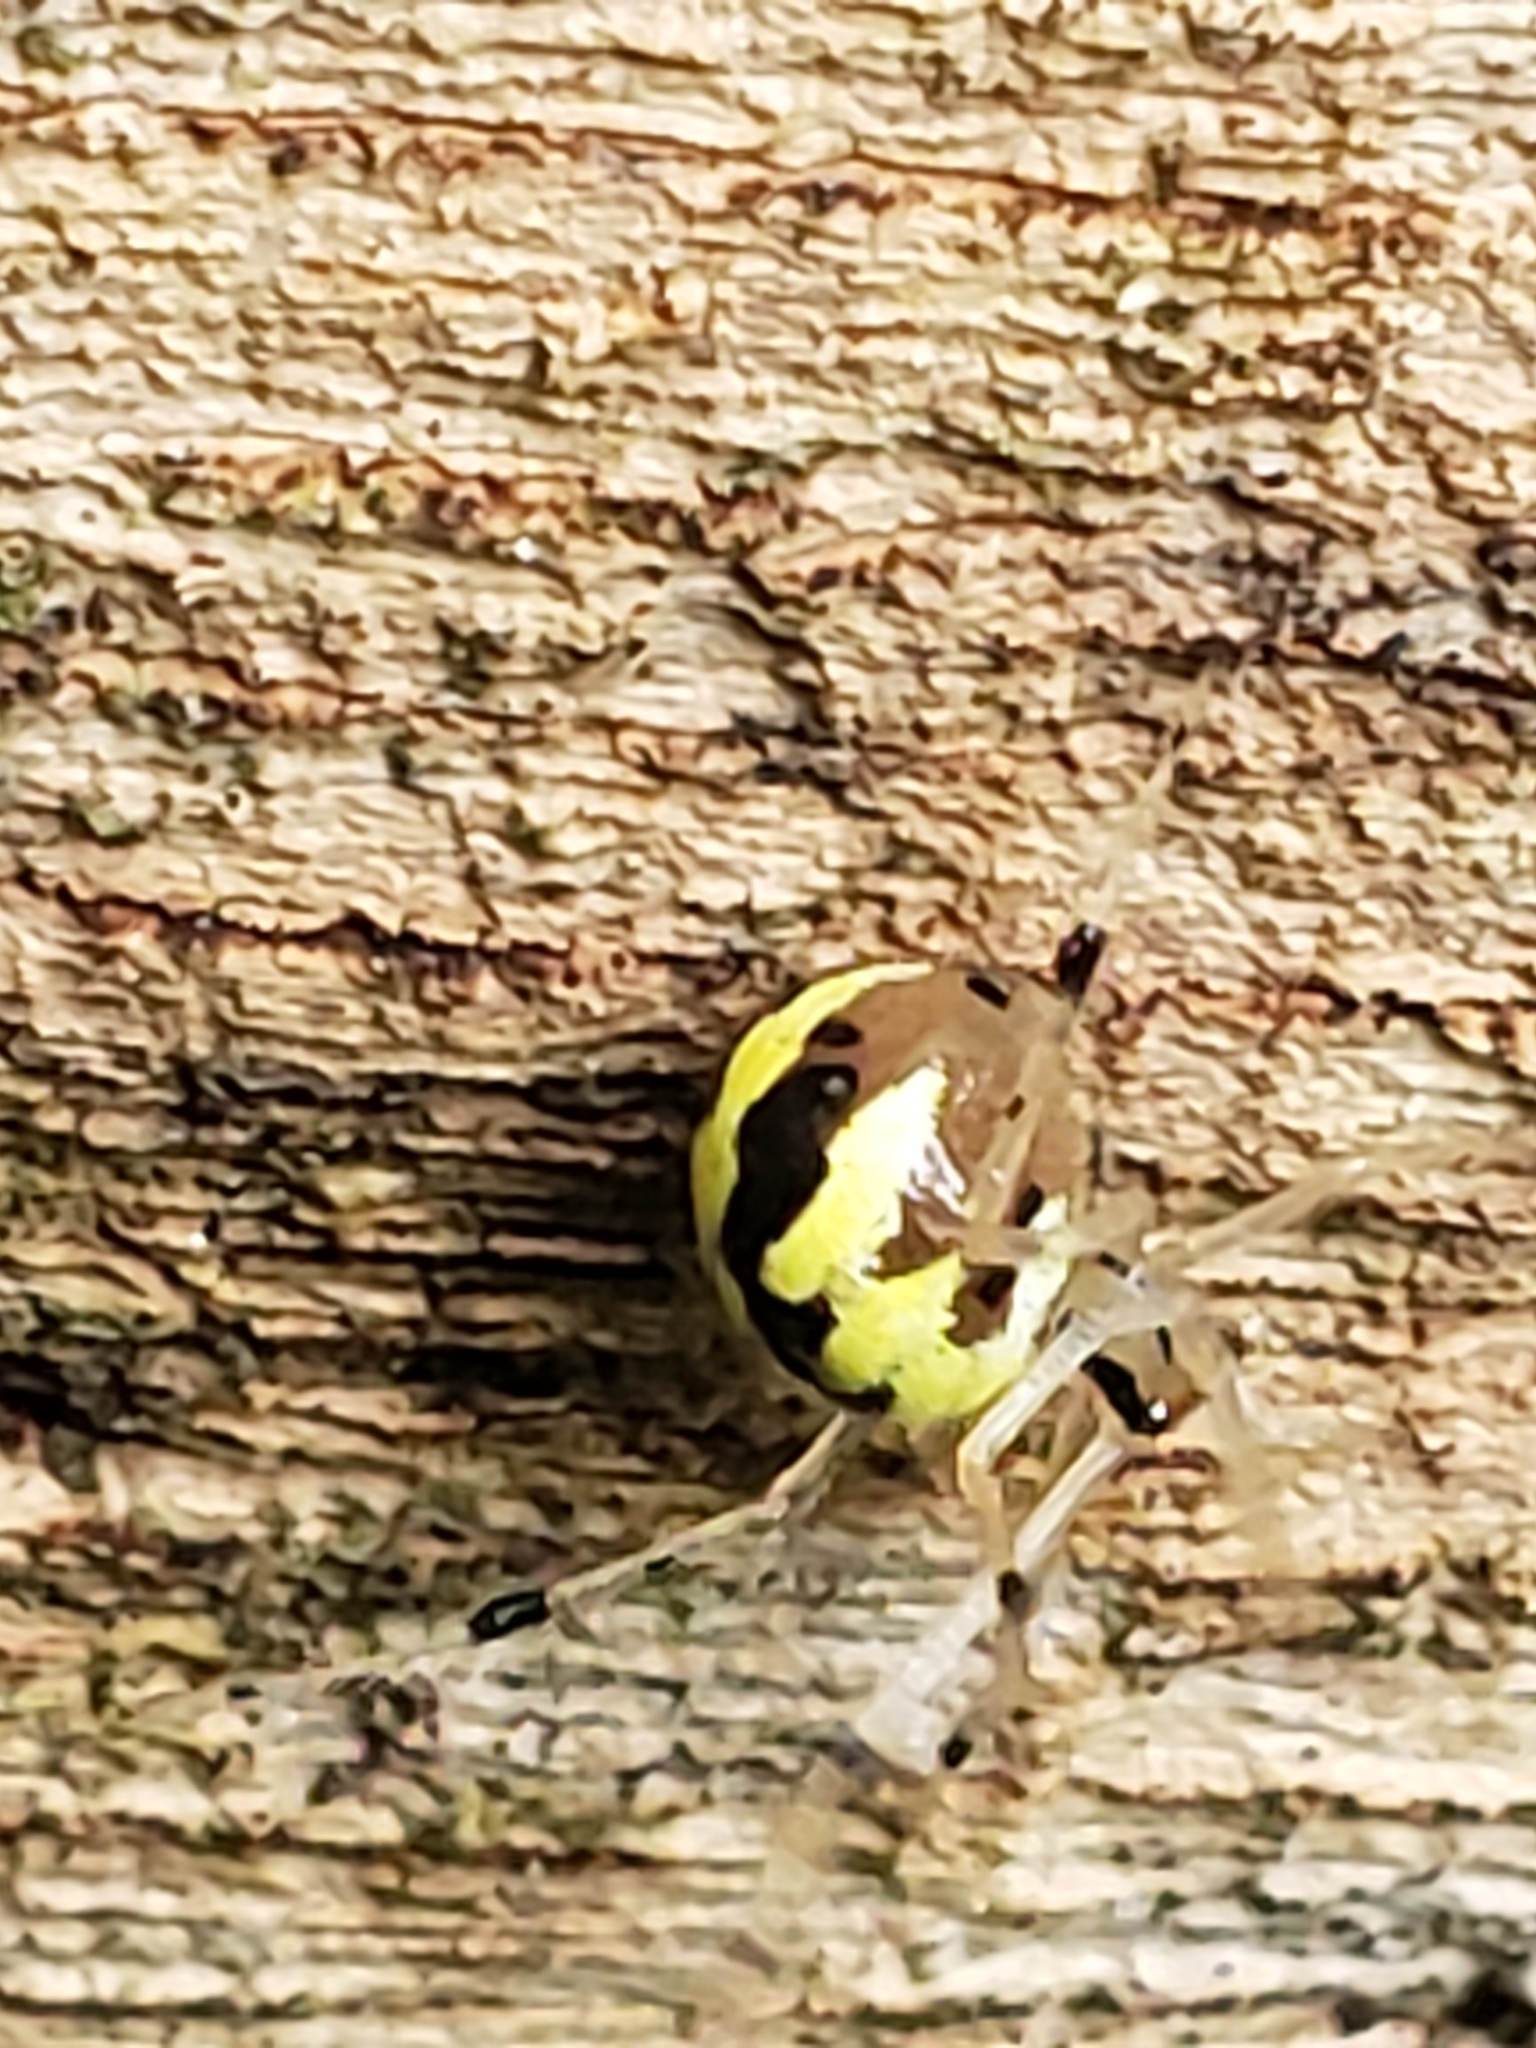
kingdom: Animalia
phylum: Arthropoda
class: Arachnida
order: Araneae
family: Theridiidae
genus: Phylloneta
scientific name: Phylloneta pictipes
